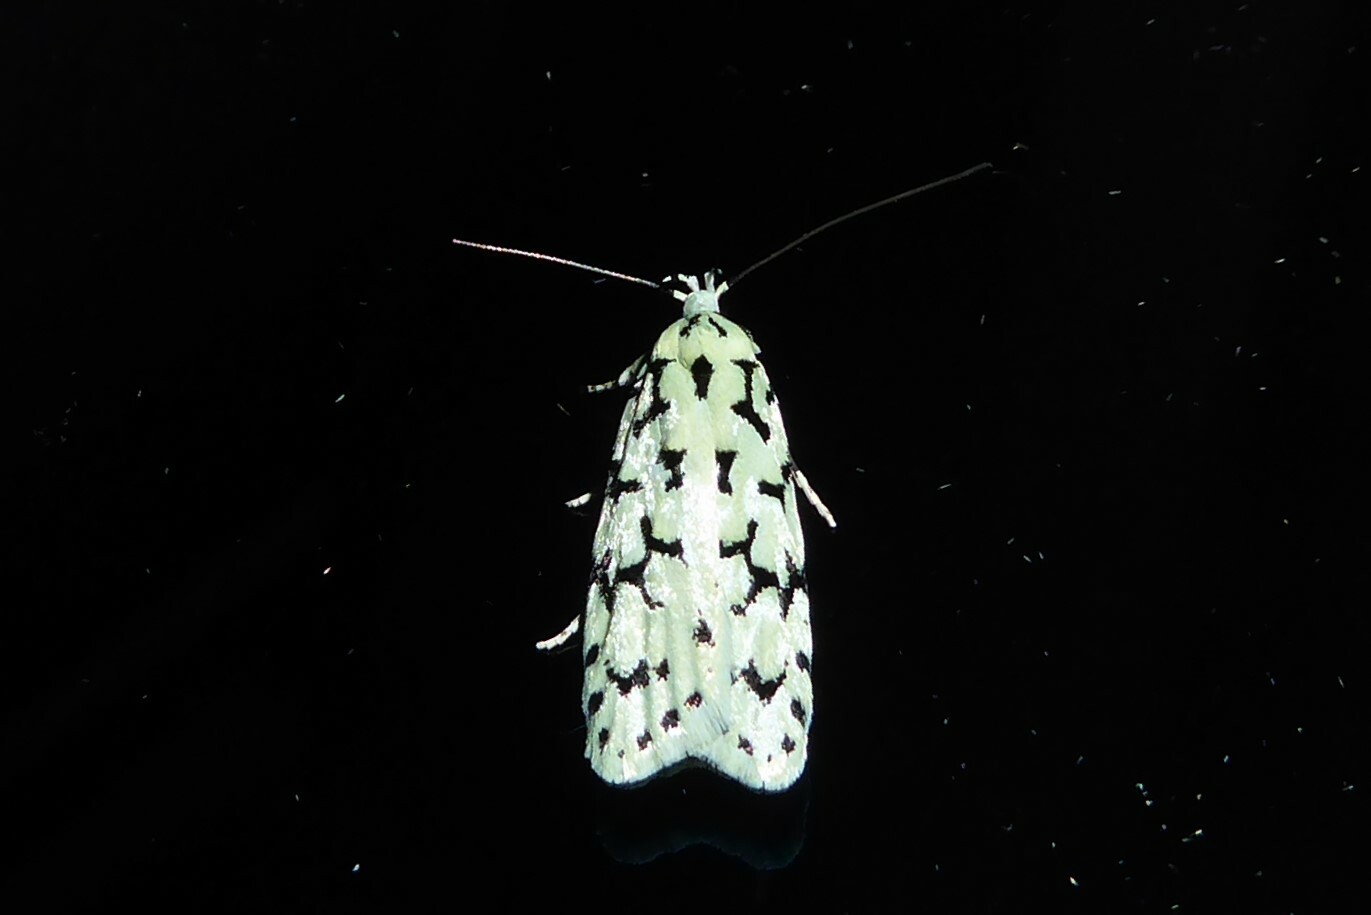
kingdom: Animalia
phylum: Arthropoda
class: Insecta
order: Lepidoptera
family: Oecophoridae
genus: Izatha
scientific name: Izatha huttoni
